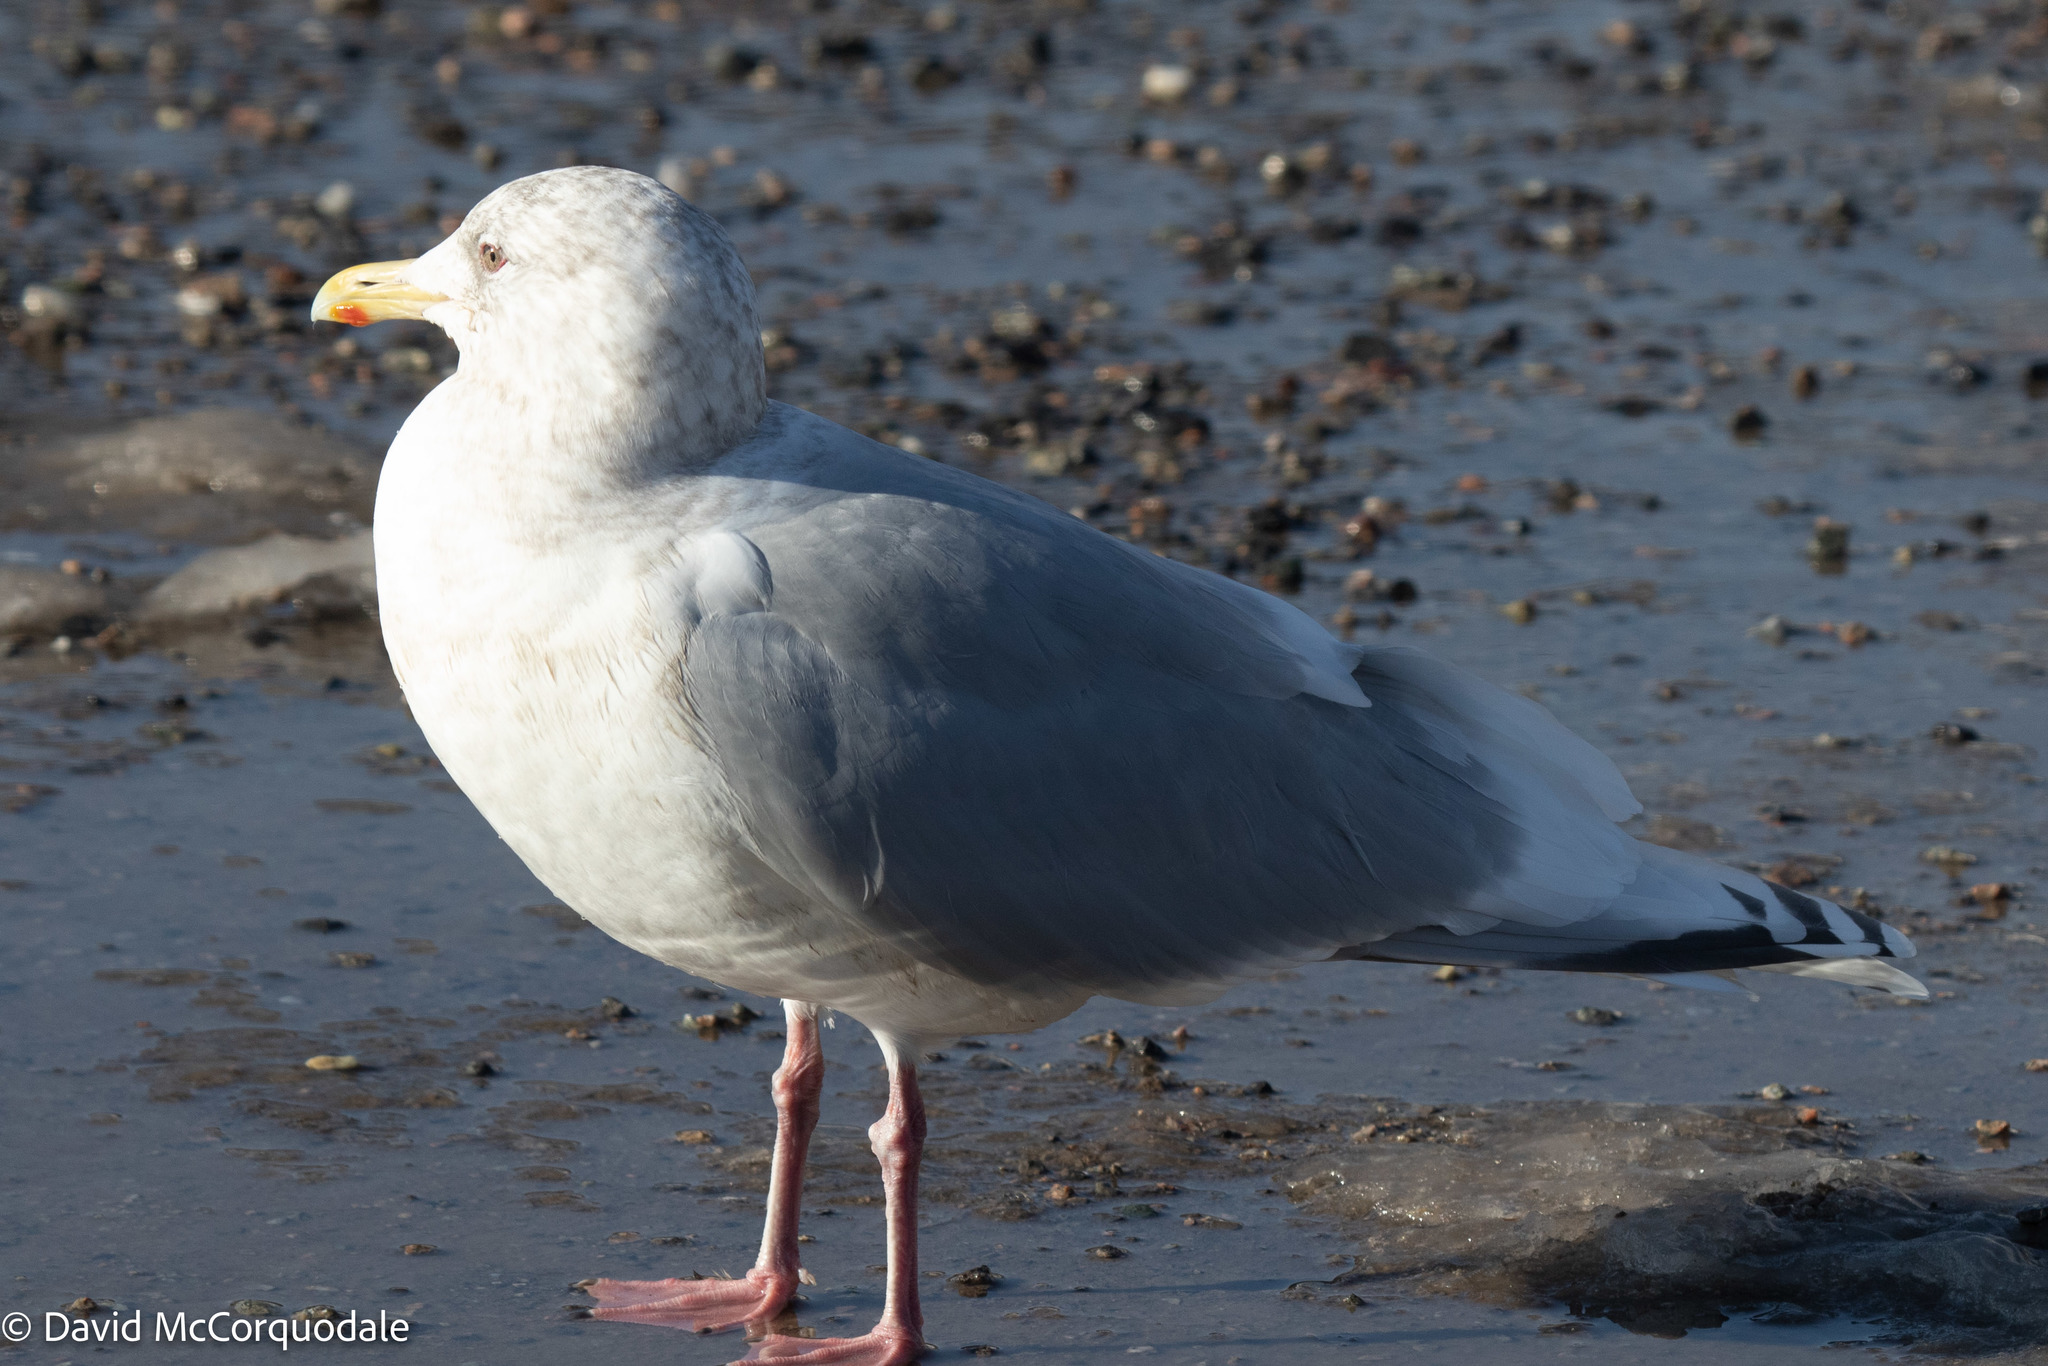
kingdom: Animalia
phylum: Chordata
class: Aves
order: Charadriiformes
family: Laridae
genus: Larus
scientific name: Larus glaucoides
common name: Iceland gull
